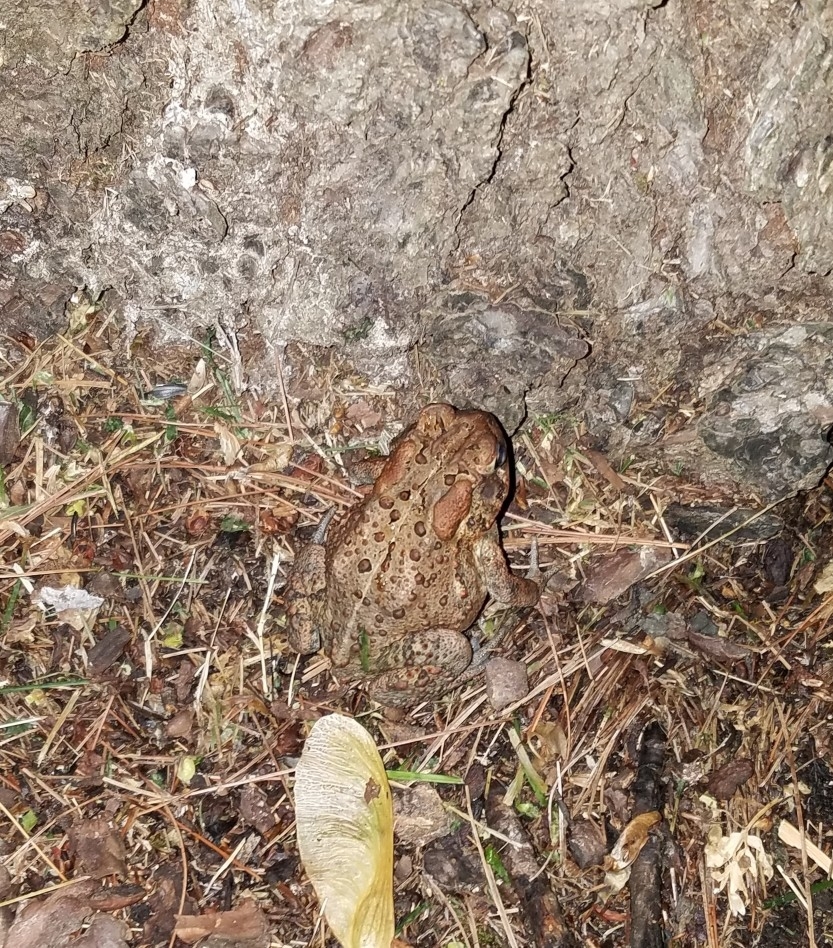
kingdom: Animalia
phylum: Chordata
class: Amphibia
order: Anura
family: Bufonidae
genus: Anaxyrus
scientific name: Anaxyrus americanus
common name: American toad
